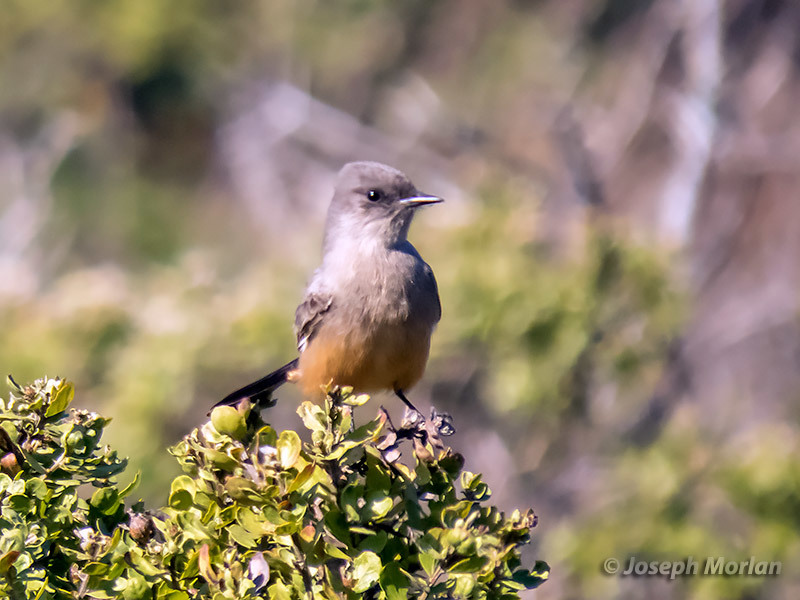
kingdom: Animalia
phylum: Chordata
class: Aves
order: Passeriformes
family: Tyrannidae
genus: Sayornis
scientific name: Sayornis saya
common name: Say's phoebe
